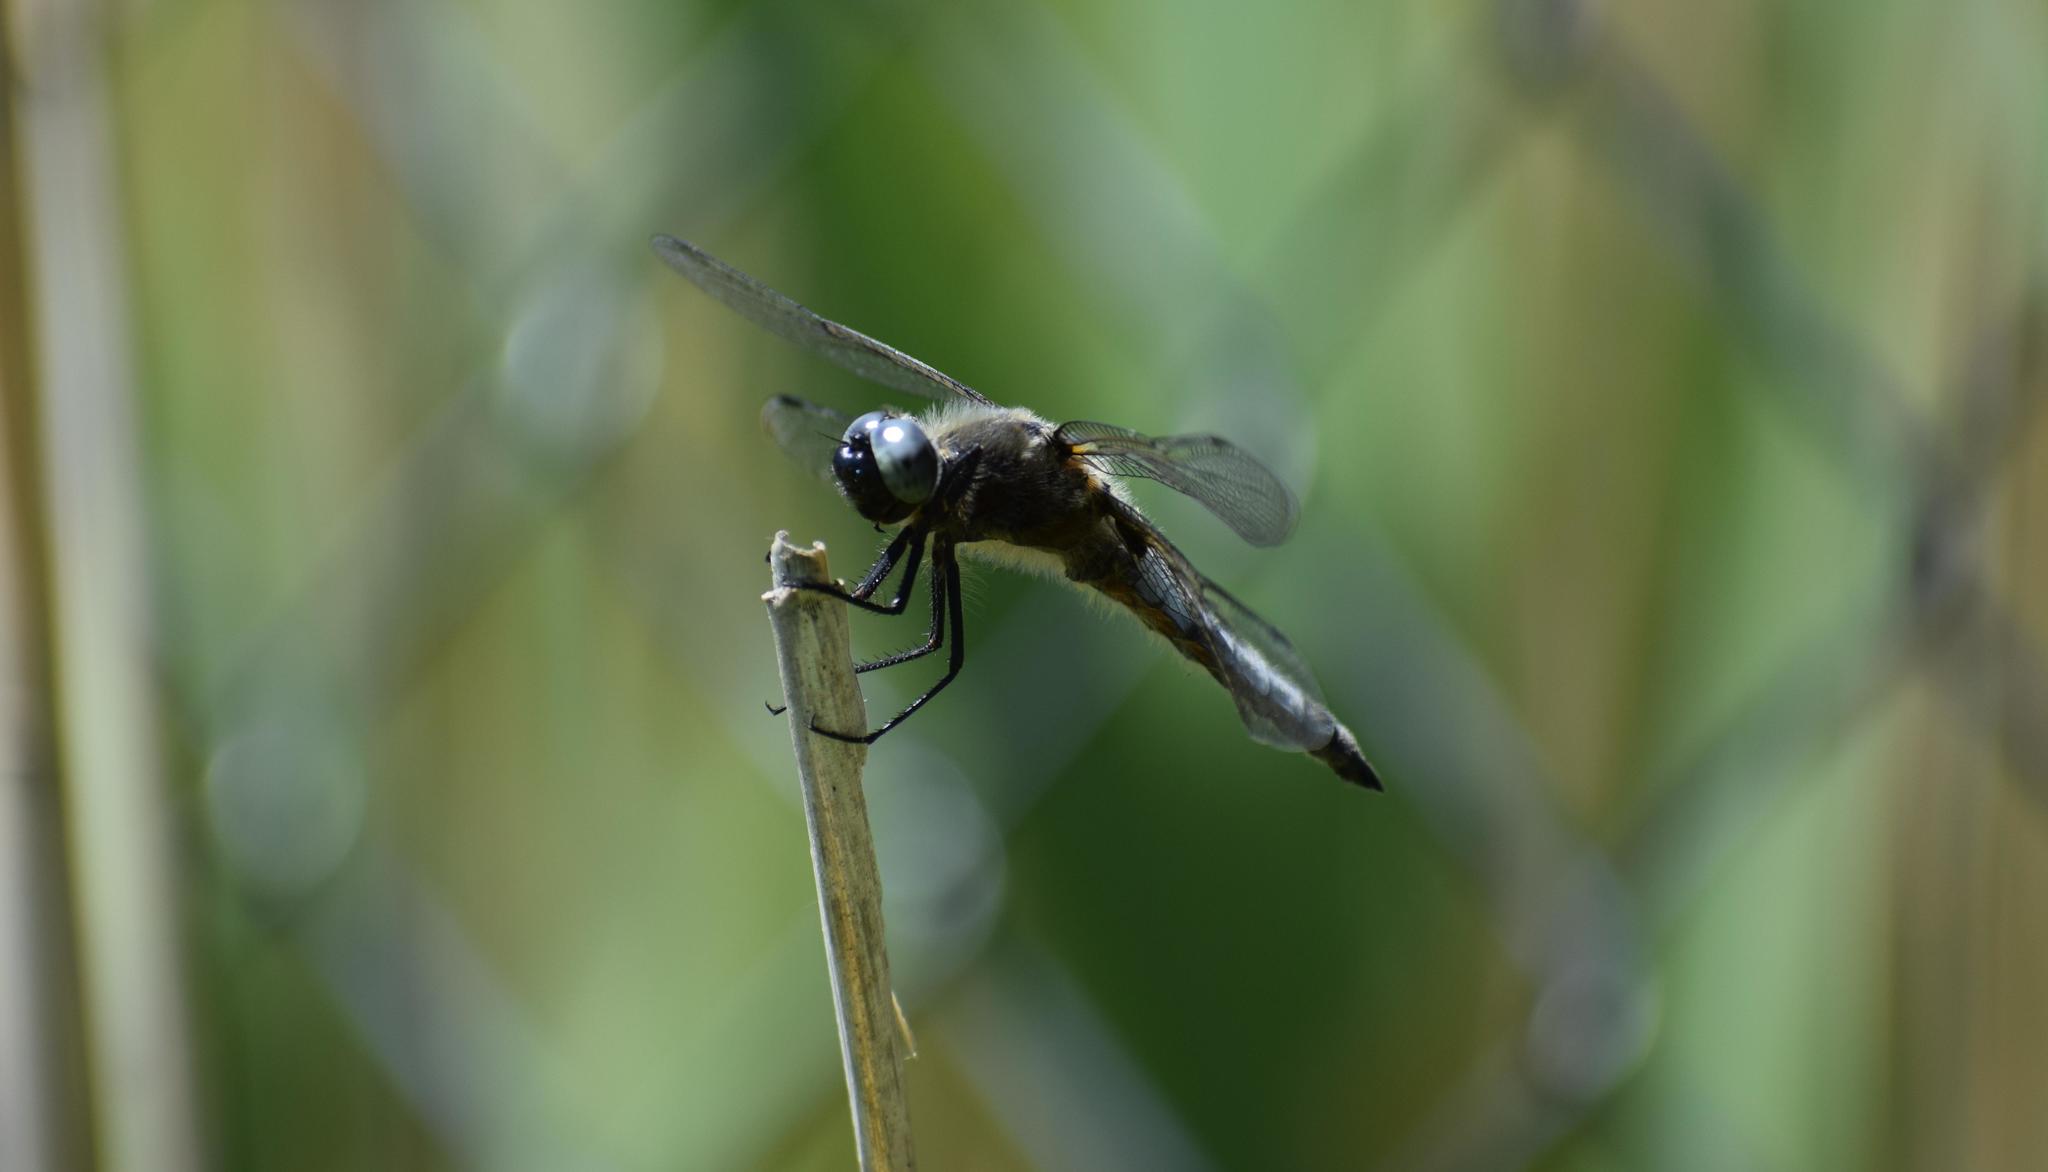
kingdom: Animalia
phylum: Arthropoda
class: Insecta
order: Odonata
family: Libellulidae
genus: Libellula
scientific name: Libellula fulva
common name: Blue chaser
